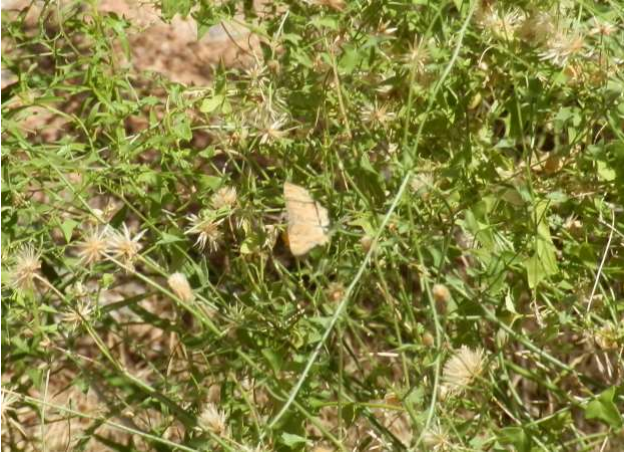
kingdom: Animalia
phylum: Arthropoda
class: Insecta
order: Lepidoptera
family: Hesperiidae
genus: Systasea
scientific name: Systasea zampa
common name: Arizona powdered-skipper
